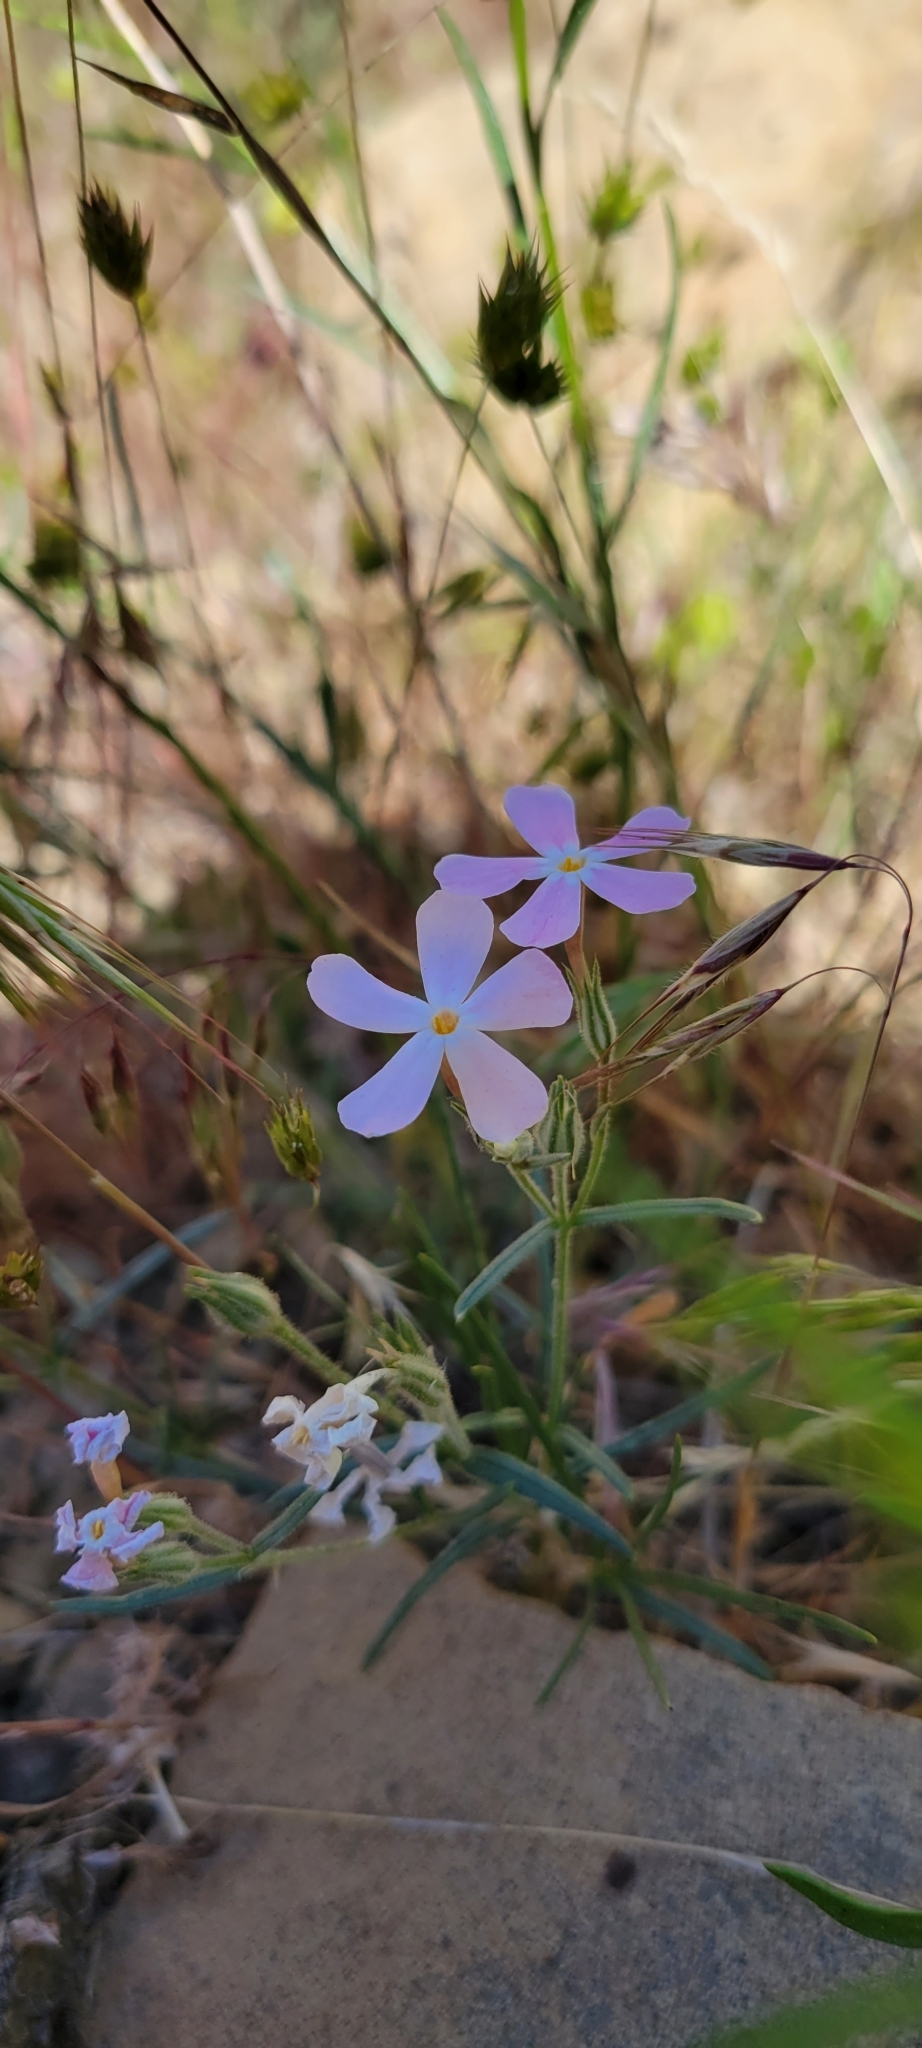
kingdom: Plantae
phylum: Tracheophyta
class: Magnoliopsida
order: Ericales
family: Polemoniaceae
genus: Phlox
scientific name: Phlox longifolia
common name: Longleaf phlox
